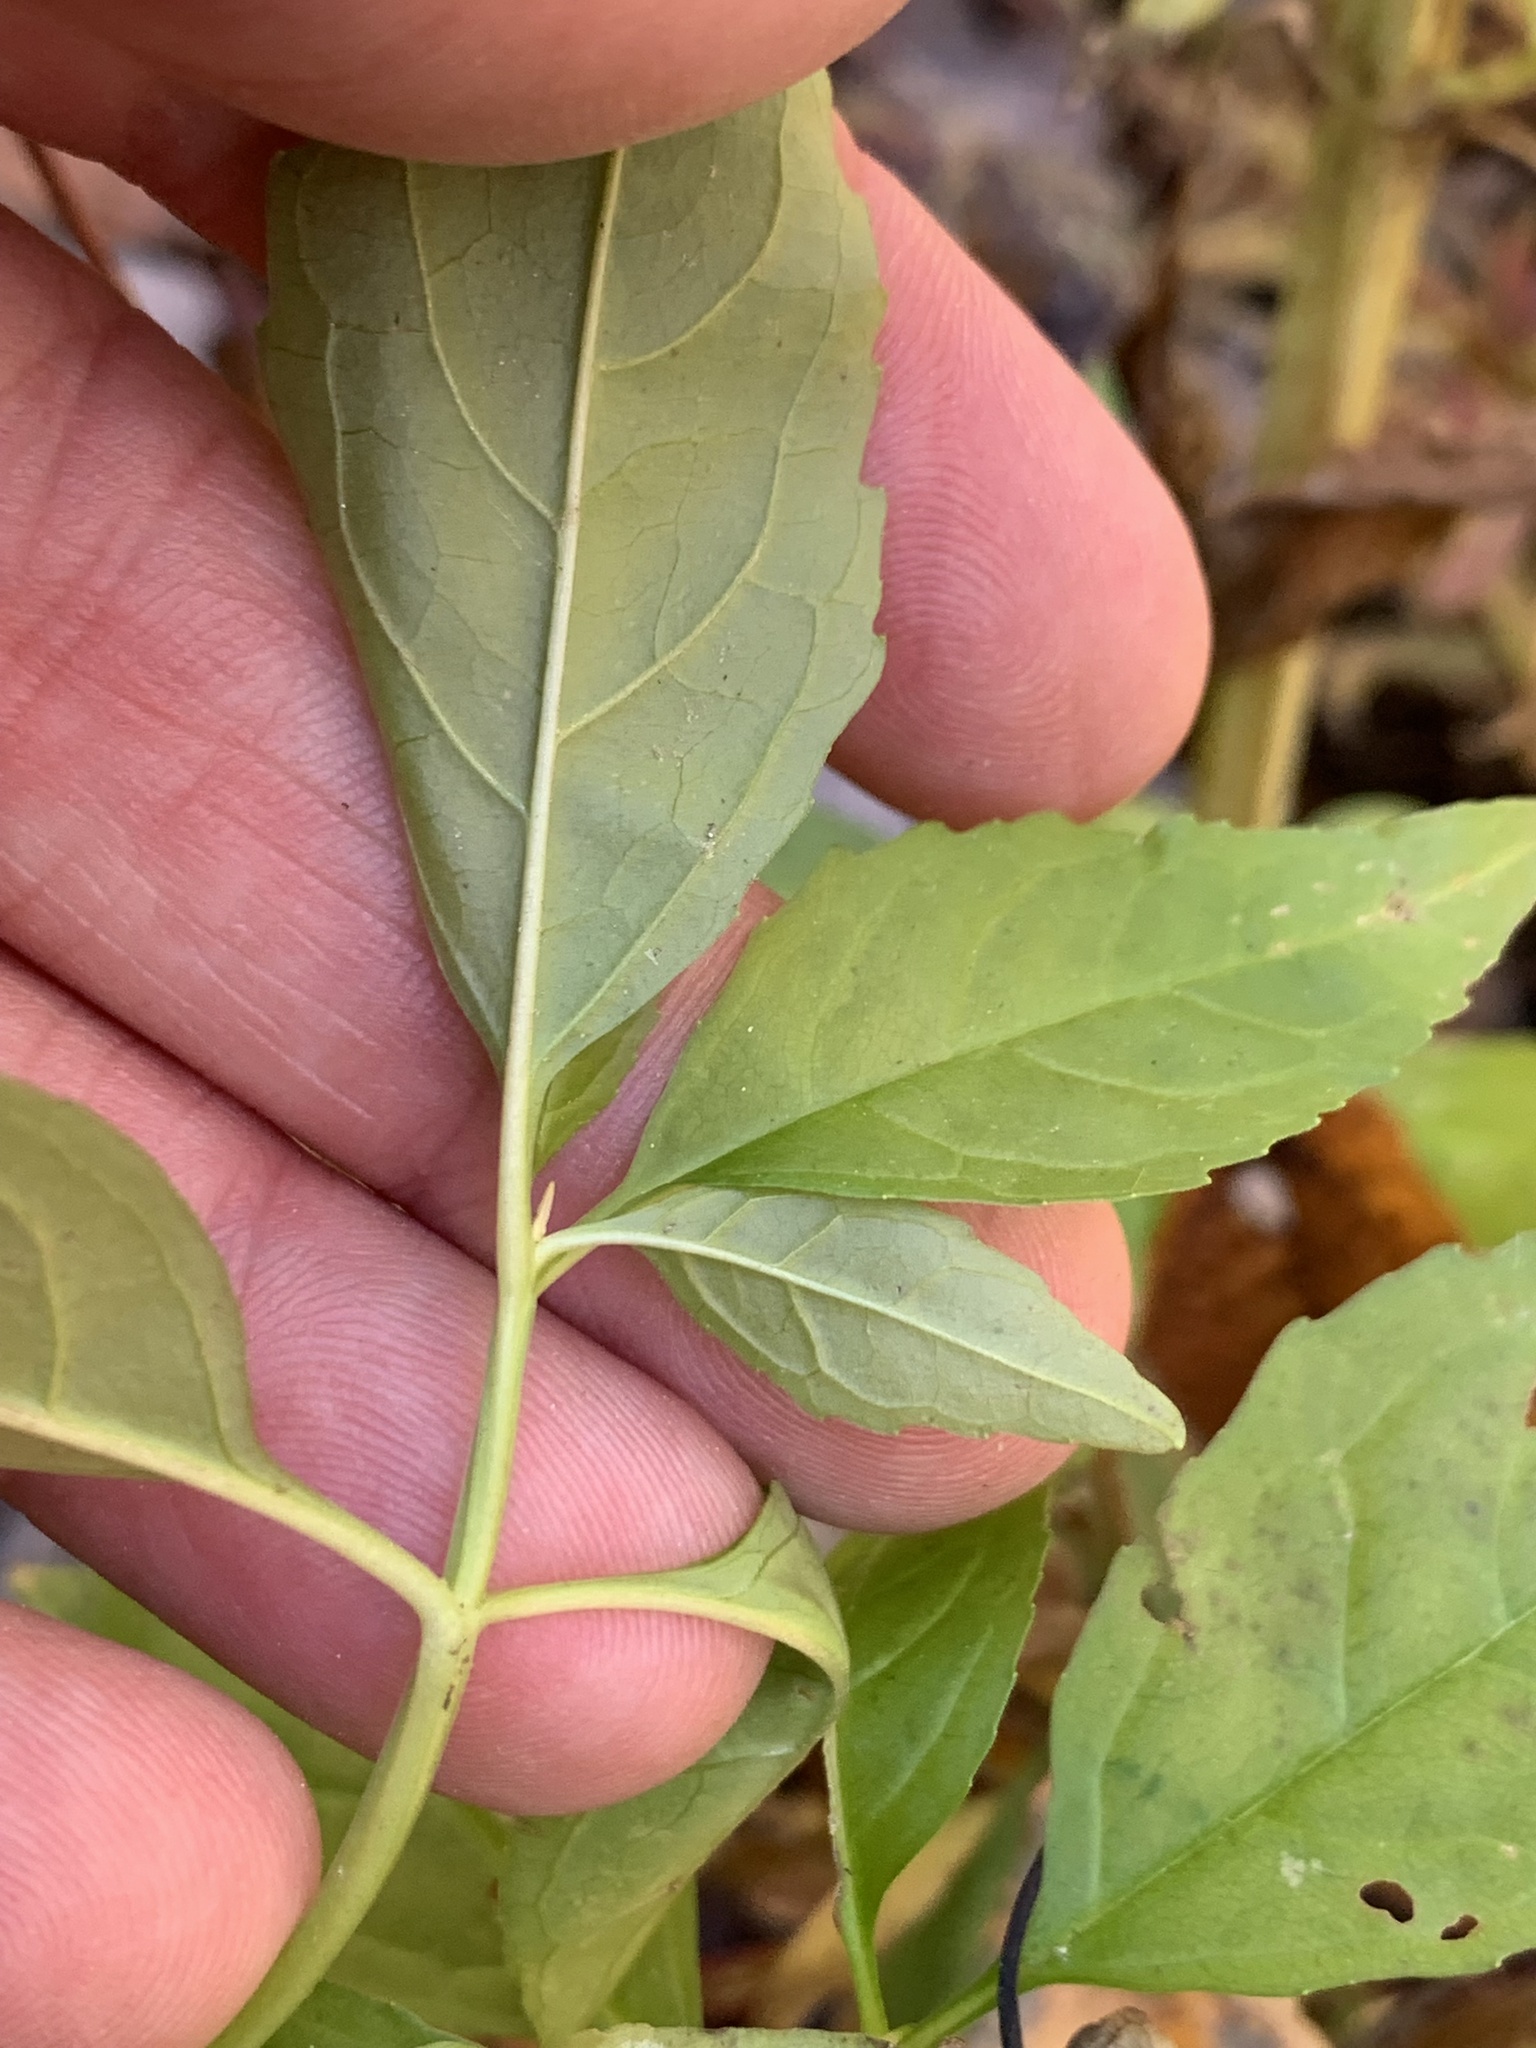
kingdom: Plantae
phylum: Tracheophyta
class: Magnoliopsida
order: Lamiales
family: Phrymaceae
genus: Mimulus
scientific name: Mimulus alatus
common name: Sharp-wing monkey-flower
